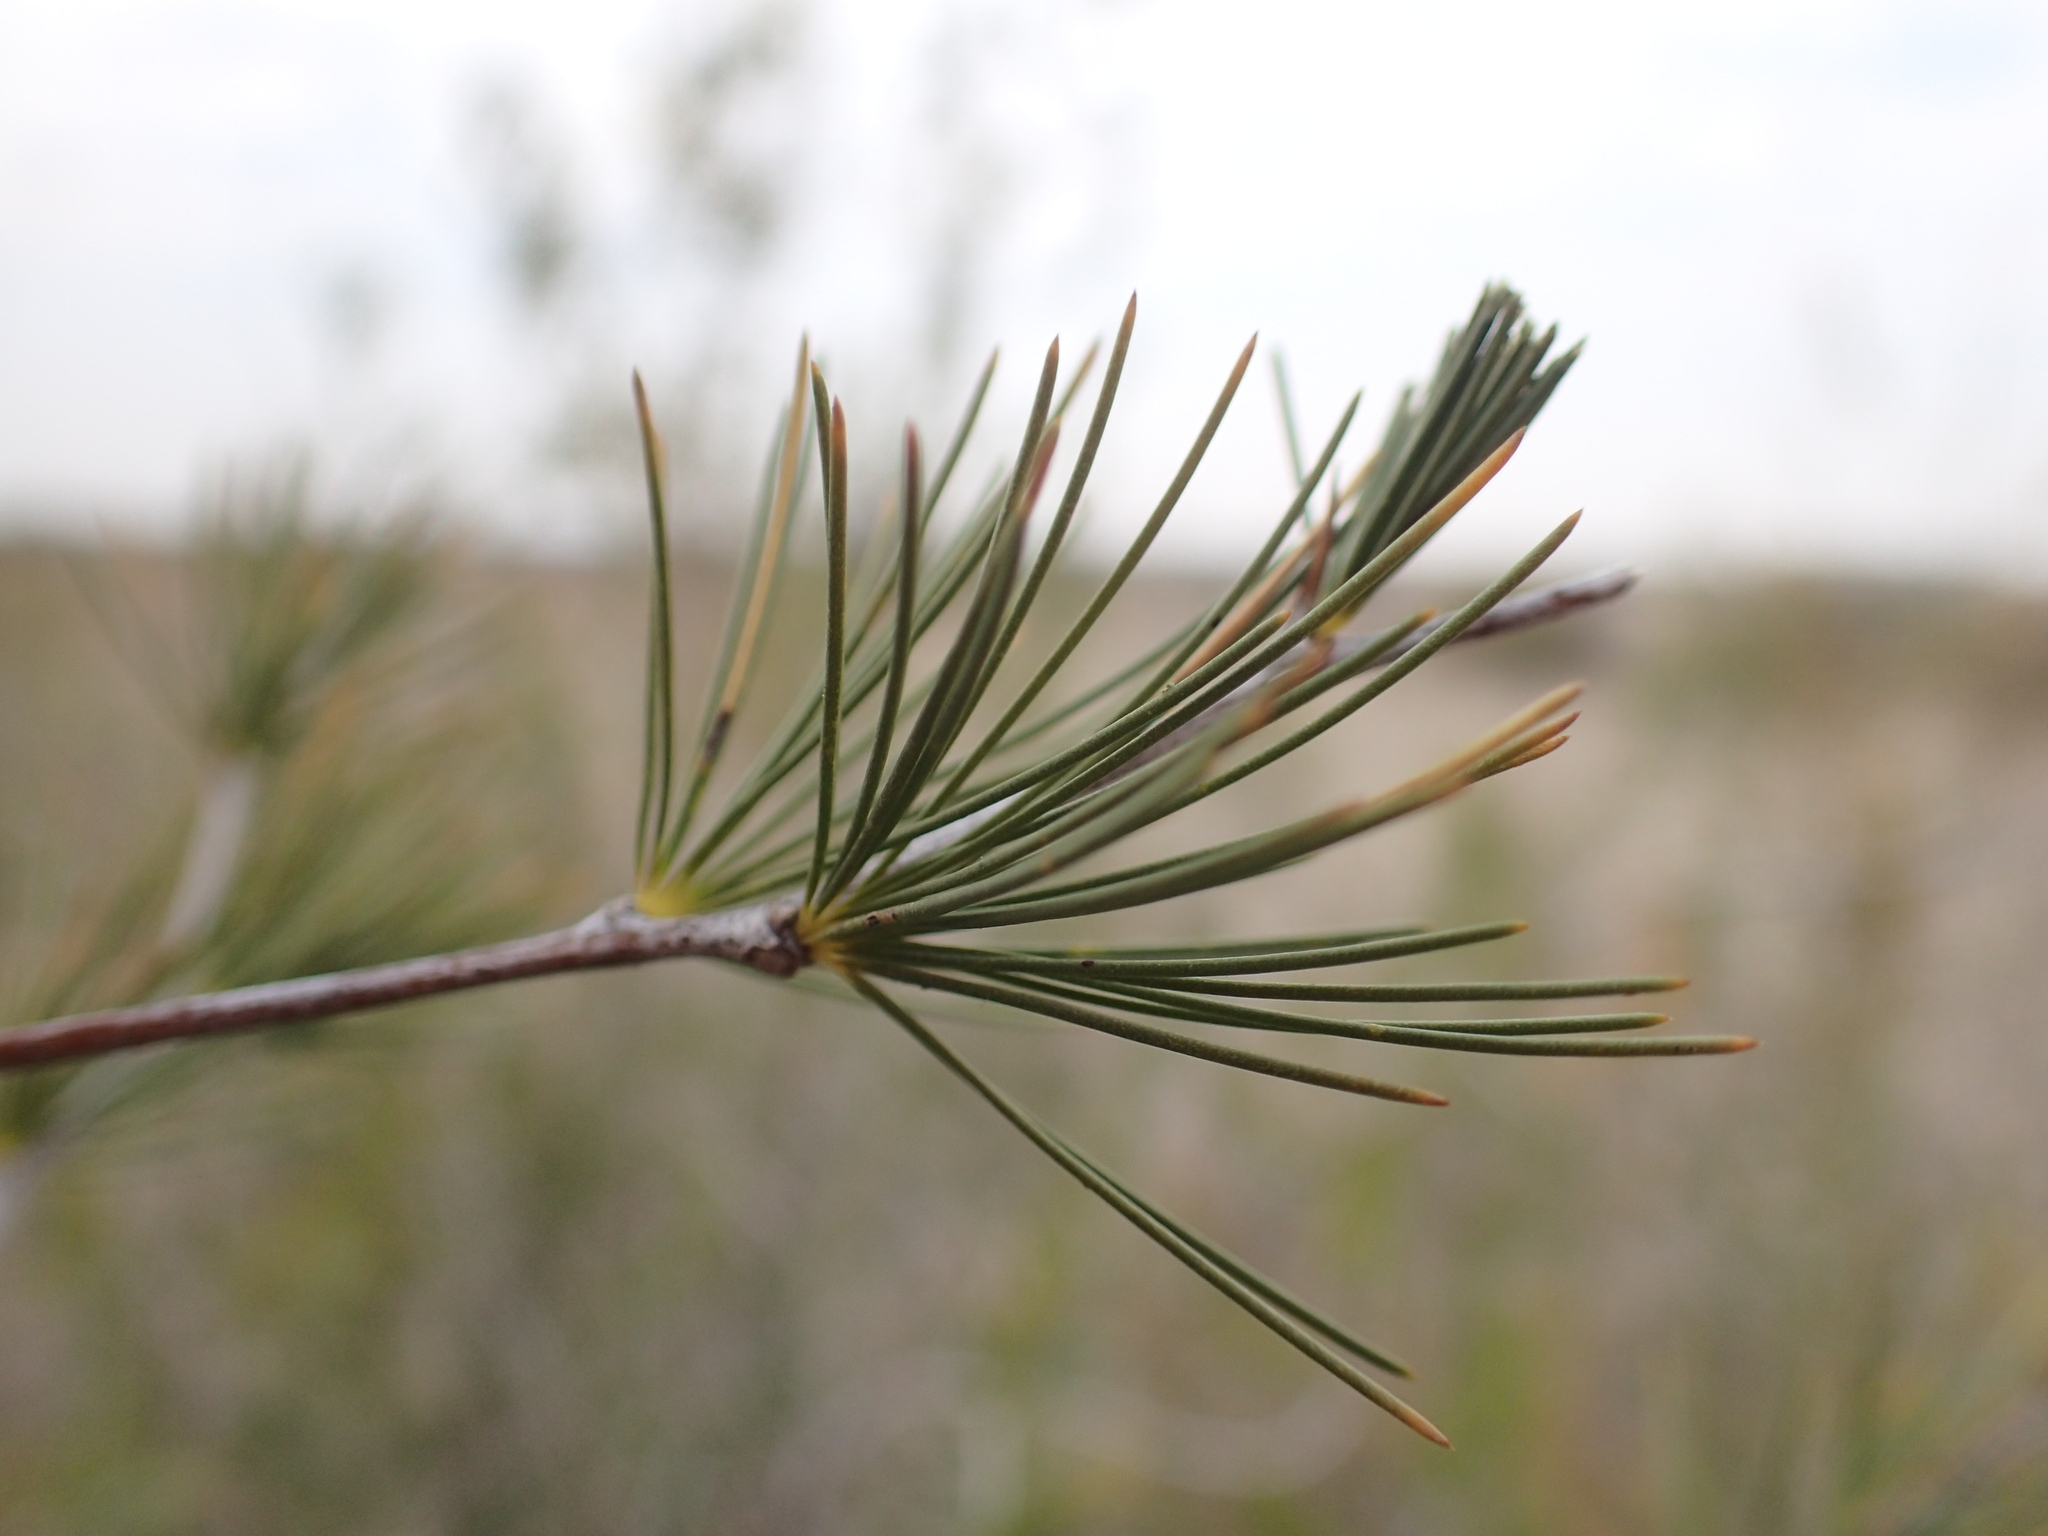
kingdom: Plantae
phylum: Tracheophyta
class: Liliopsida
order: Asparagales
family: Asparagaceae
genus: Asparagus
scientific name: Asparagus laricinus
